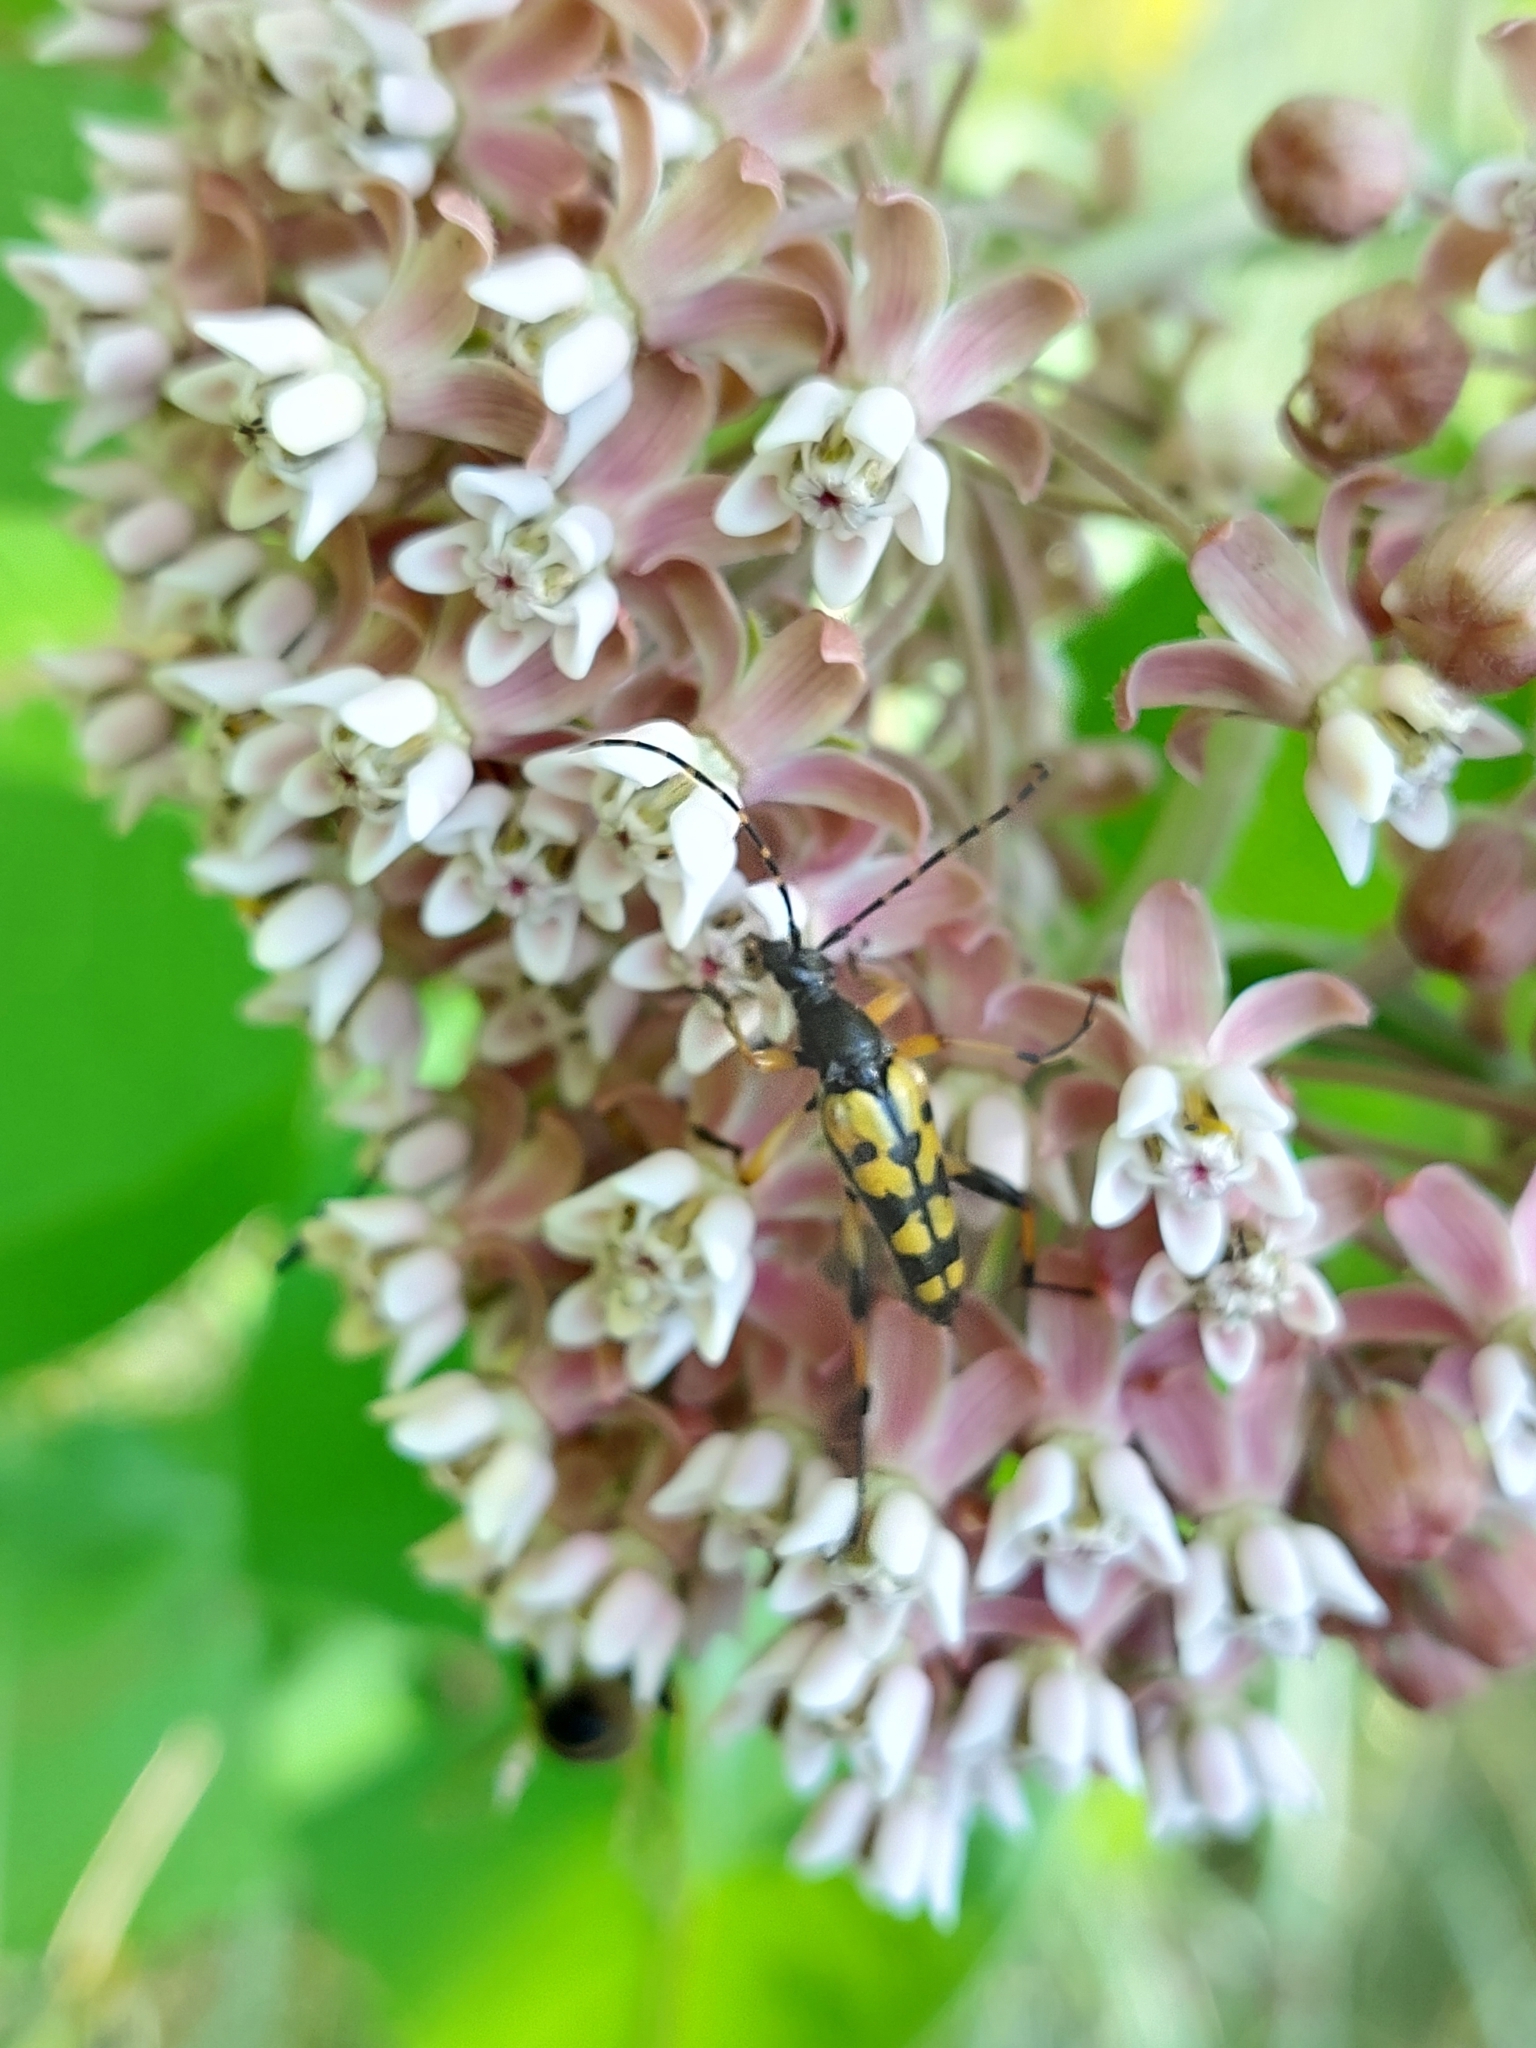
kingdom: Animalia
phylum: Arthropoda
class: Insecta
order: Coleoptera
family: Cerambycidae
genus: Rutpela
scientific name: Rutpela maculata
